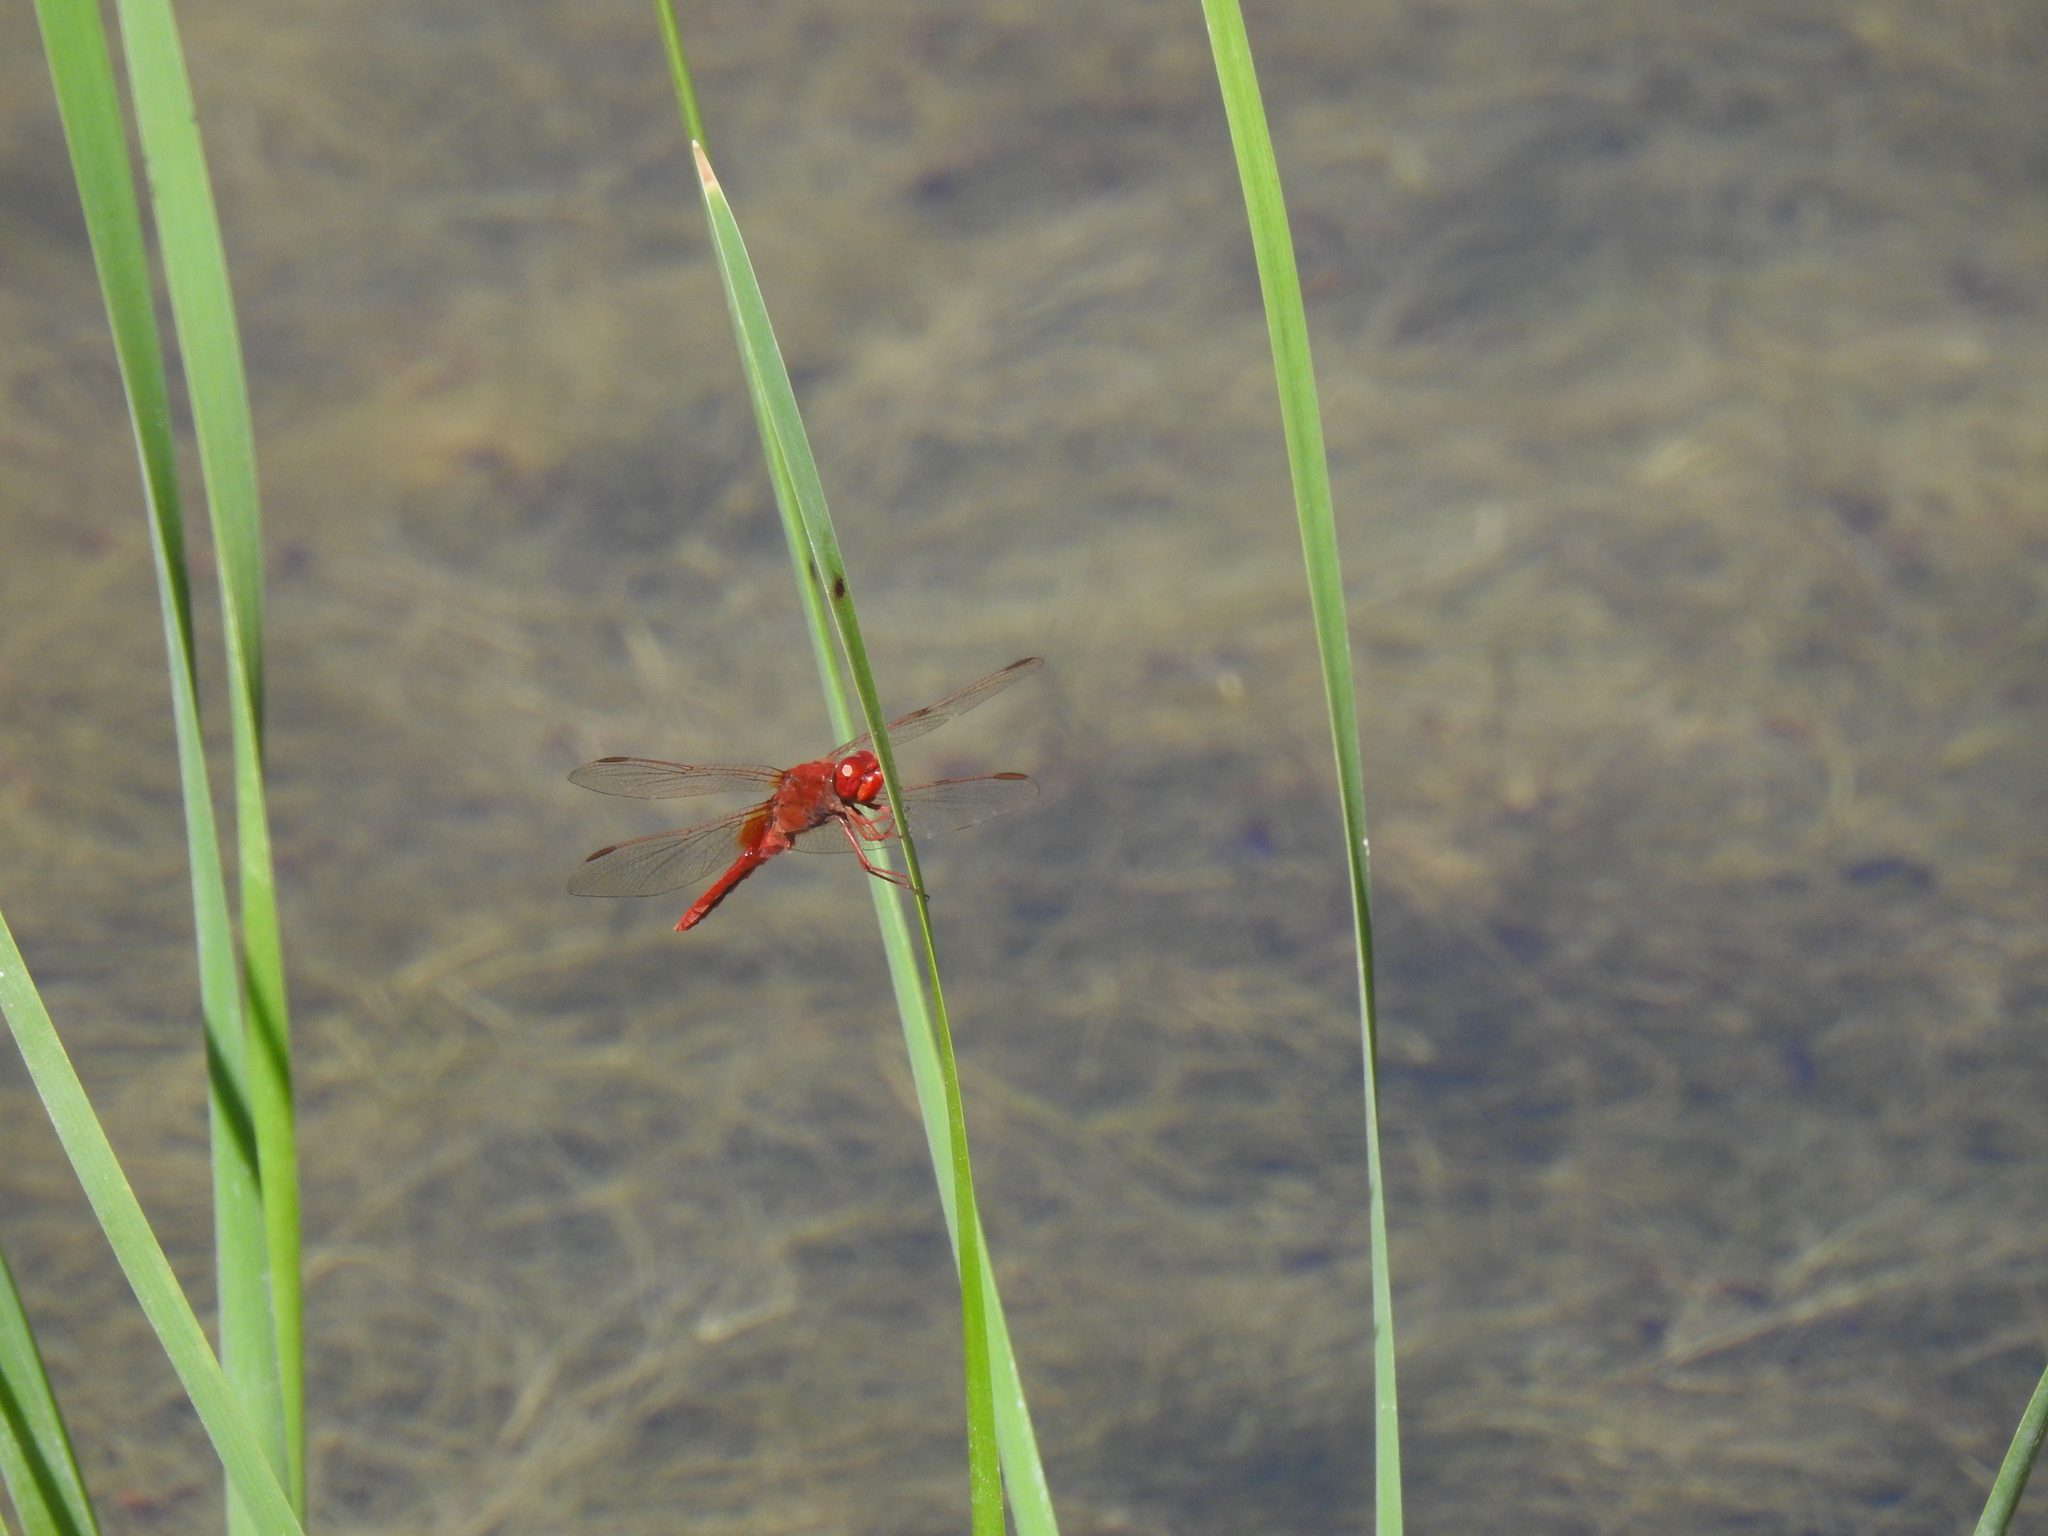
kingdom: Animalia
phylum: Arthropoda
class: Insecta
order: Odonata
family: Libellulidae
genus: Crocothemis
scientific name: Crocothemis erythraea
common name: Scarlet dragonfly
